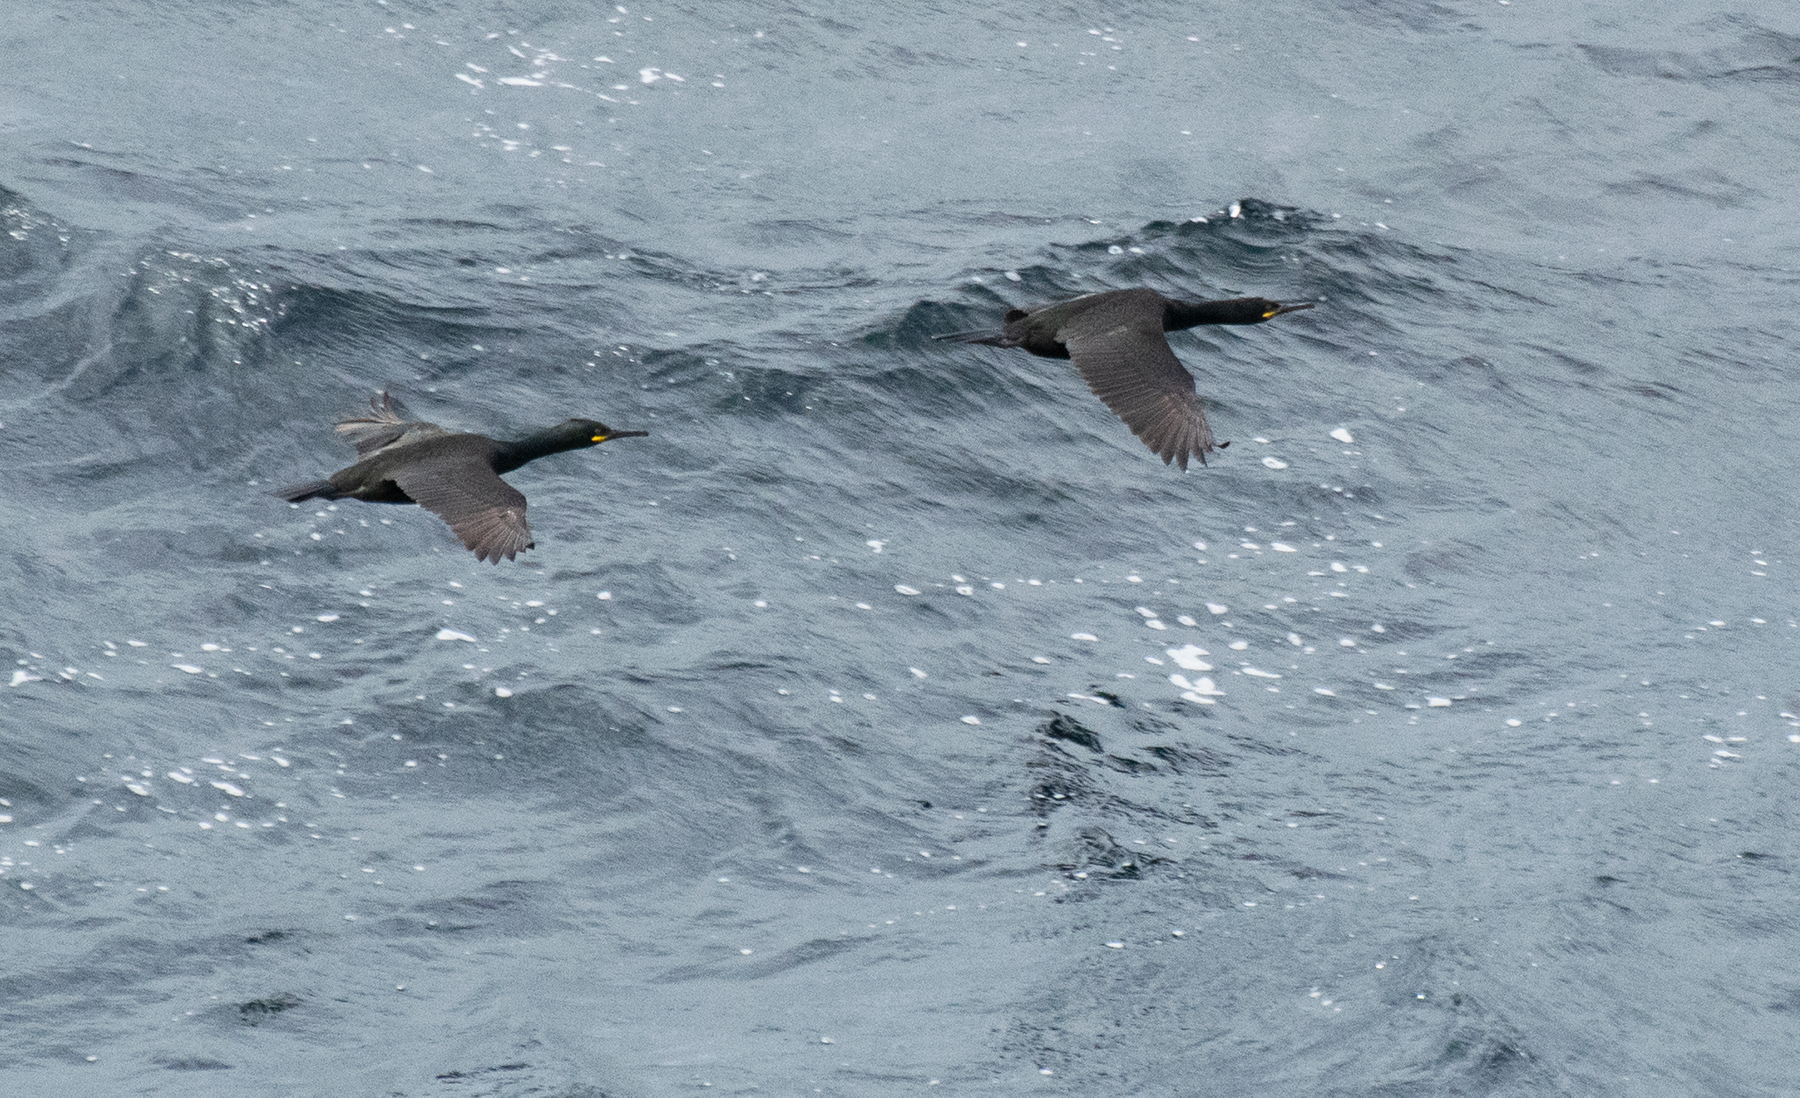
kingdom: Animalia
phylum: Chordata
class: Aves
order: Suliformes
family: Phalacrocoracidae
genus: Phalacrocorax
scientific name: Phalacrocorax aristotelis
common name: European shag
